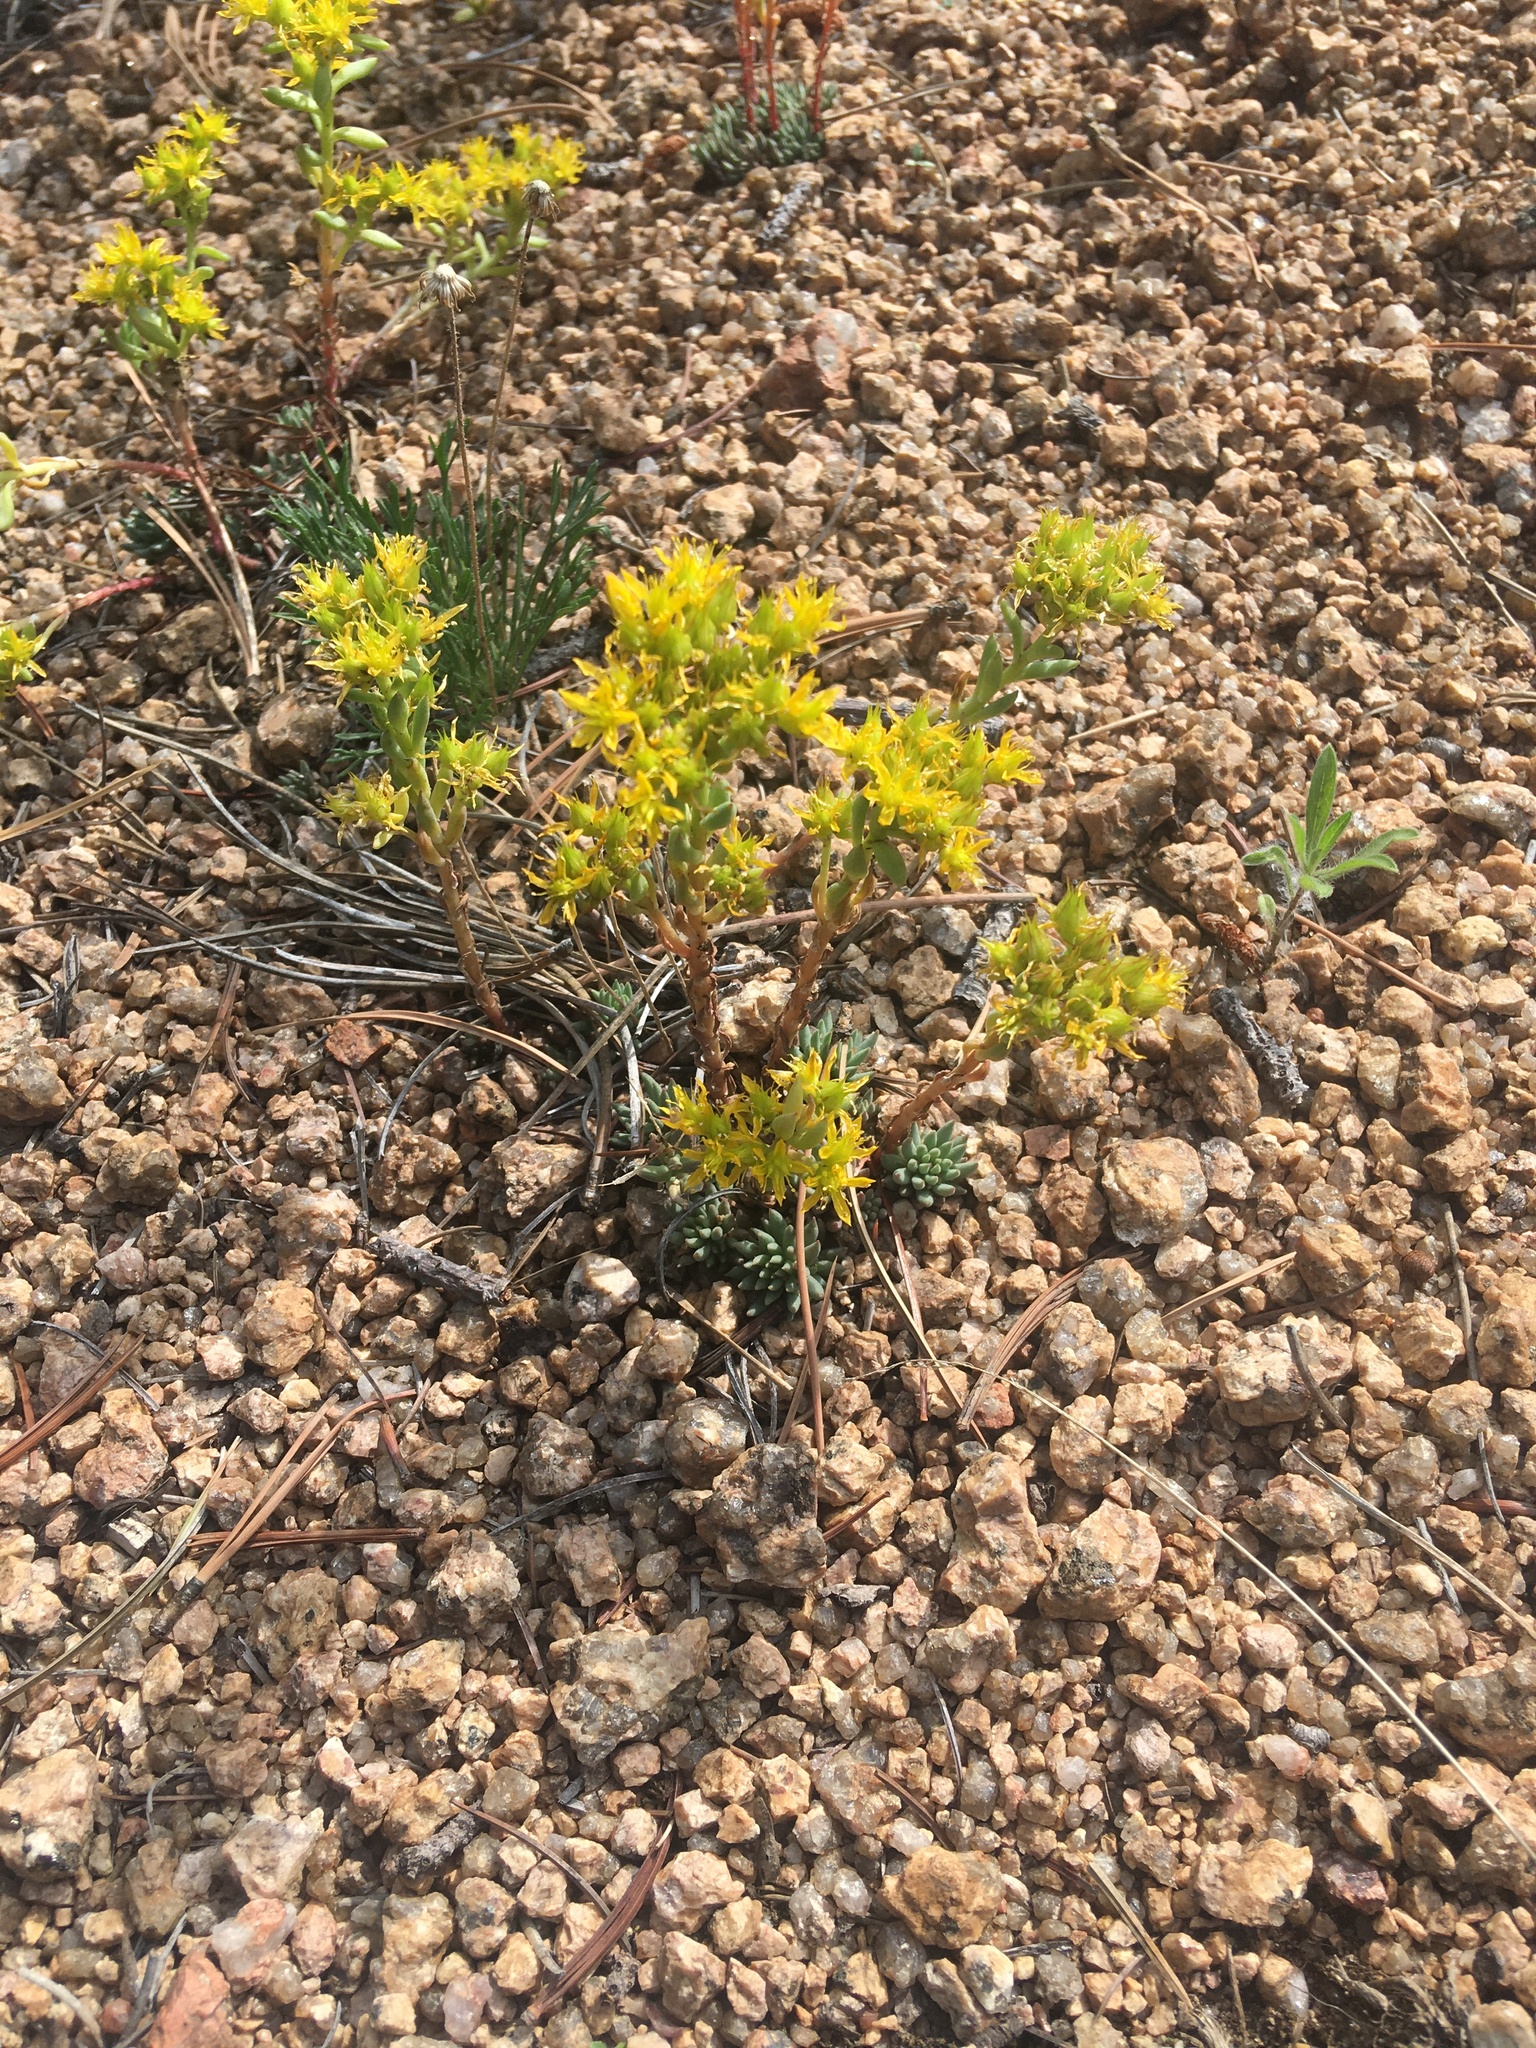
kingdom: Plantae
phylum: Tracheophyta
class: Magnoliopsida
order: Saxifragales
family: Crassulaceae
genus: Sedum
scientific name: Sedum lanceolatum
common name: Common stonecrop
